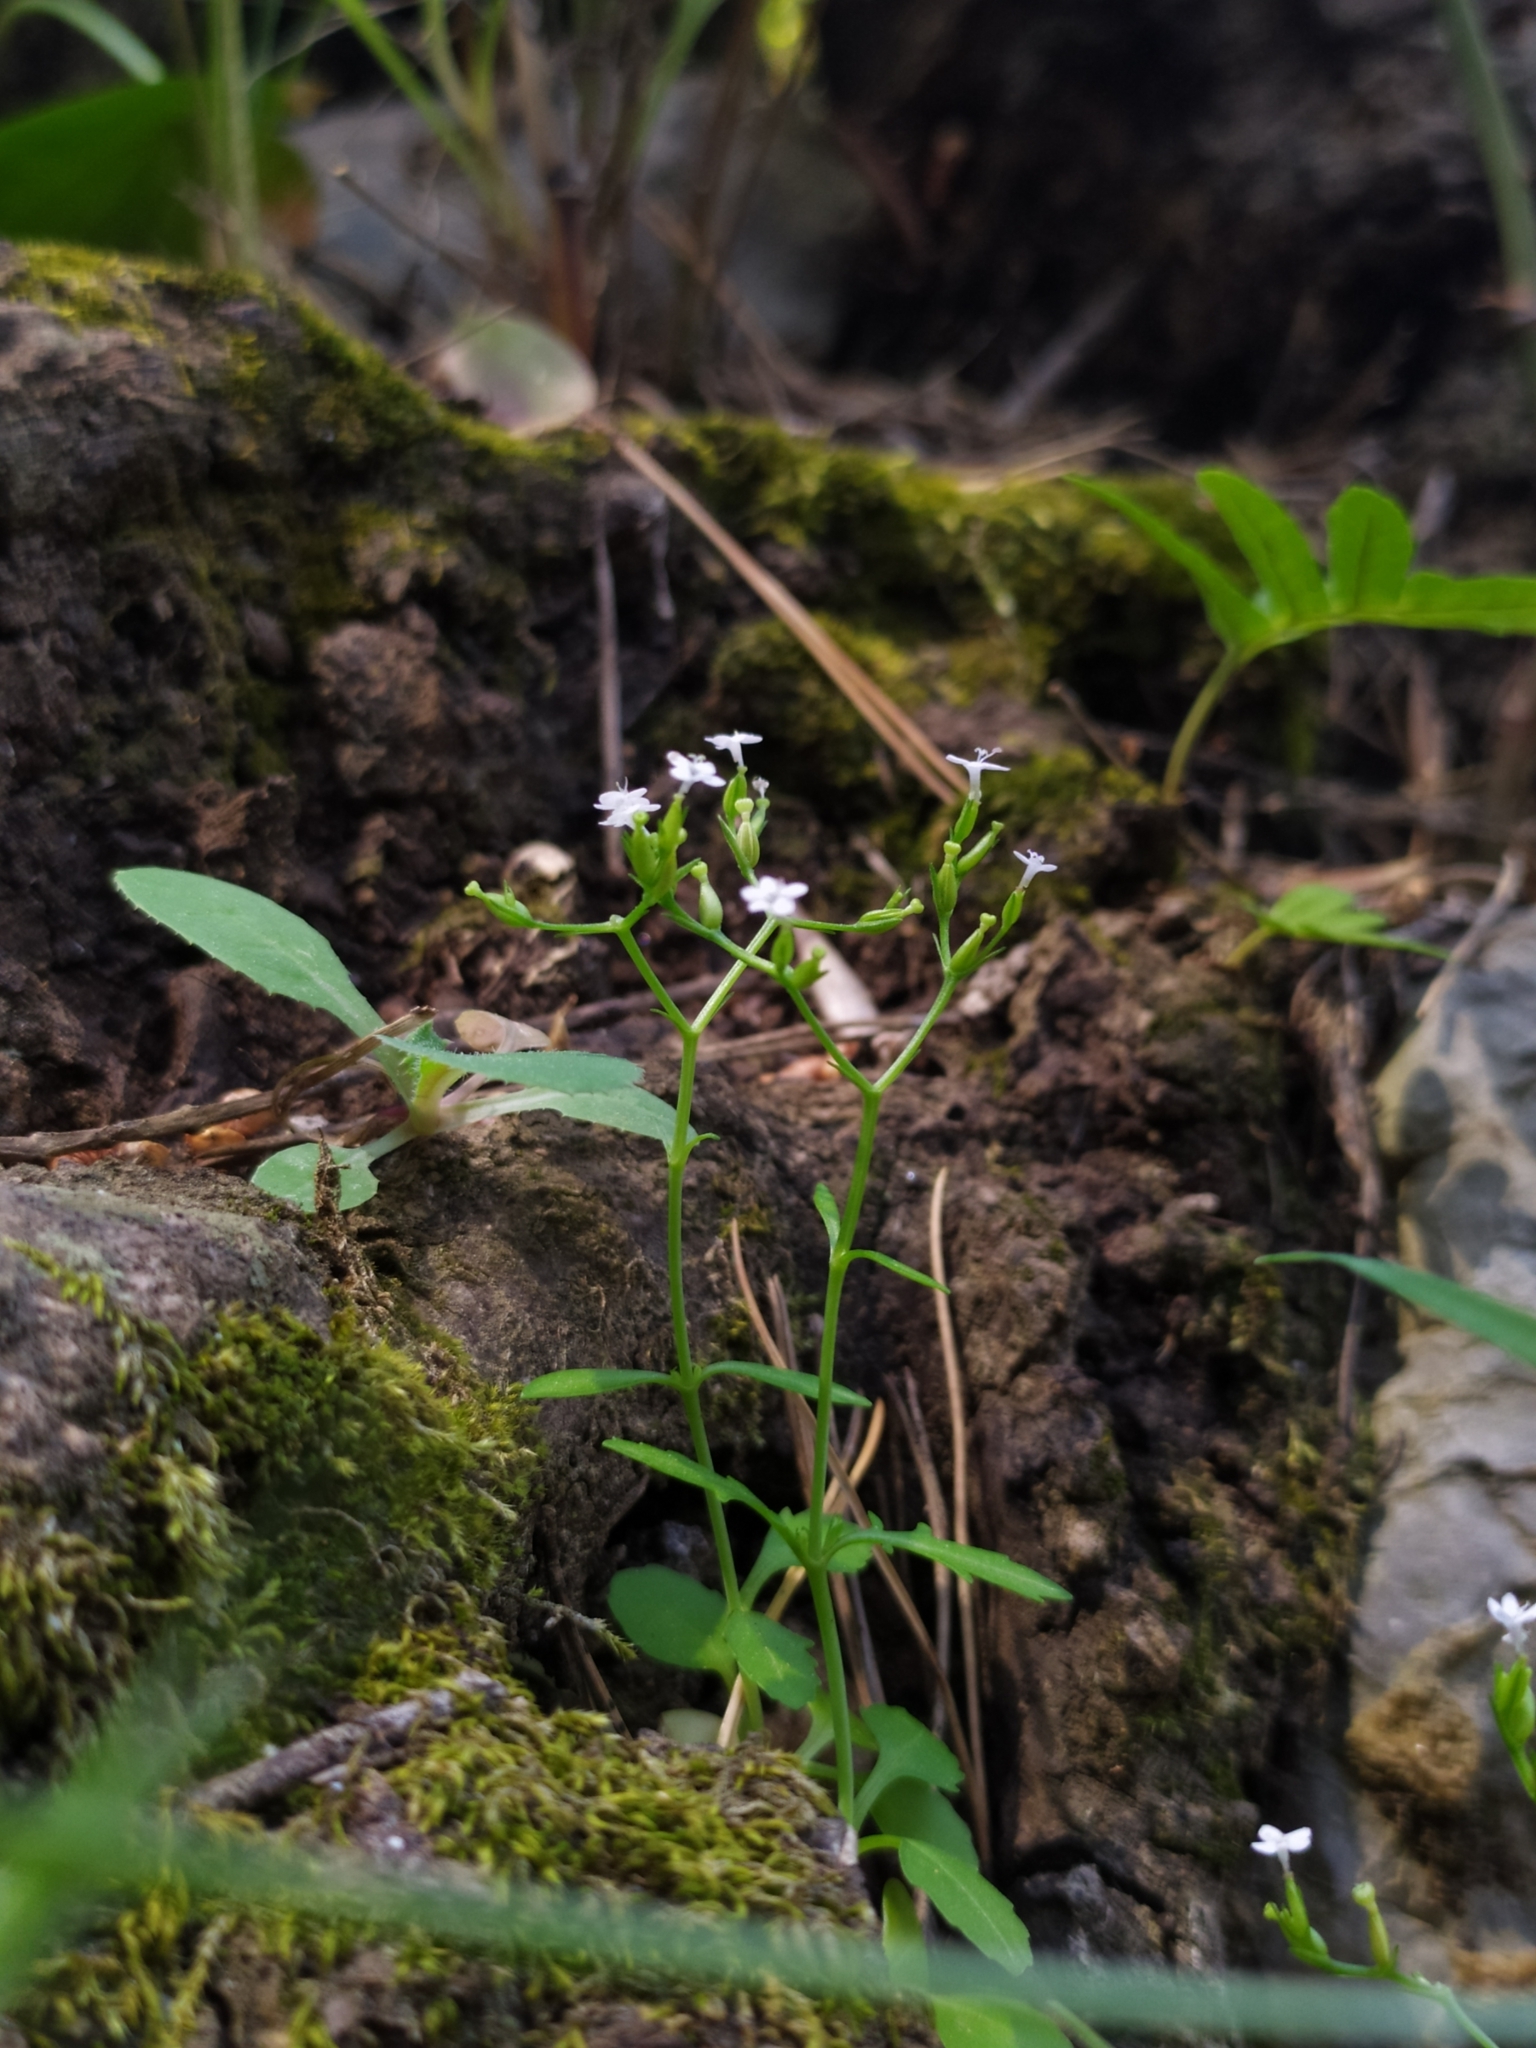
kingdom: Plantae
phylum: Tracheophyta
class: Magnoliopsida
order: Dipsacales
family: Caprifoliaceae
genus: Centranthus
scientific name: Centranthus calcitrapae
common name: Annual valerian
